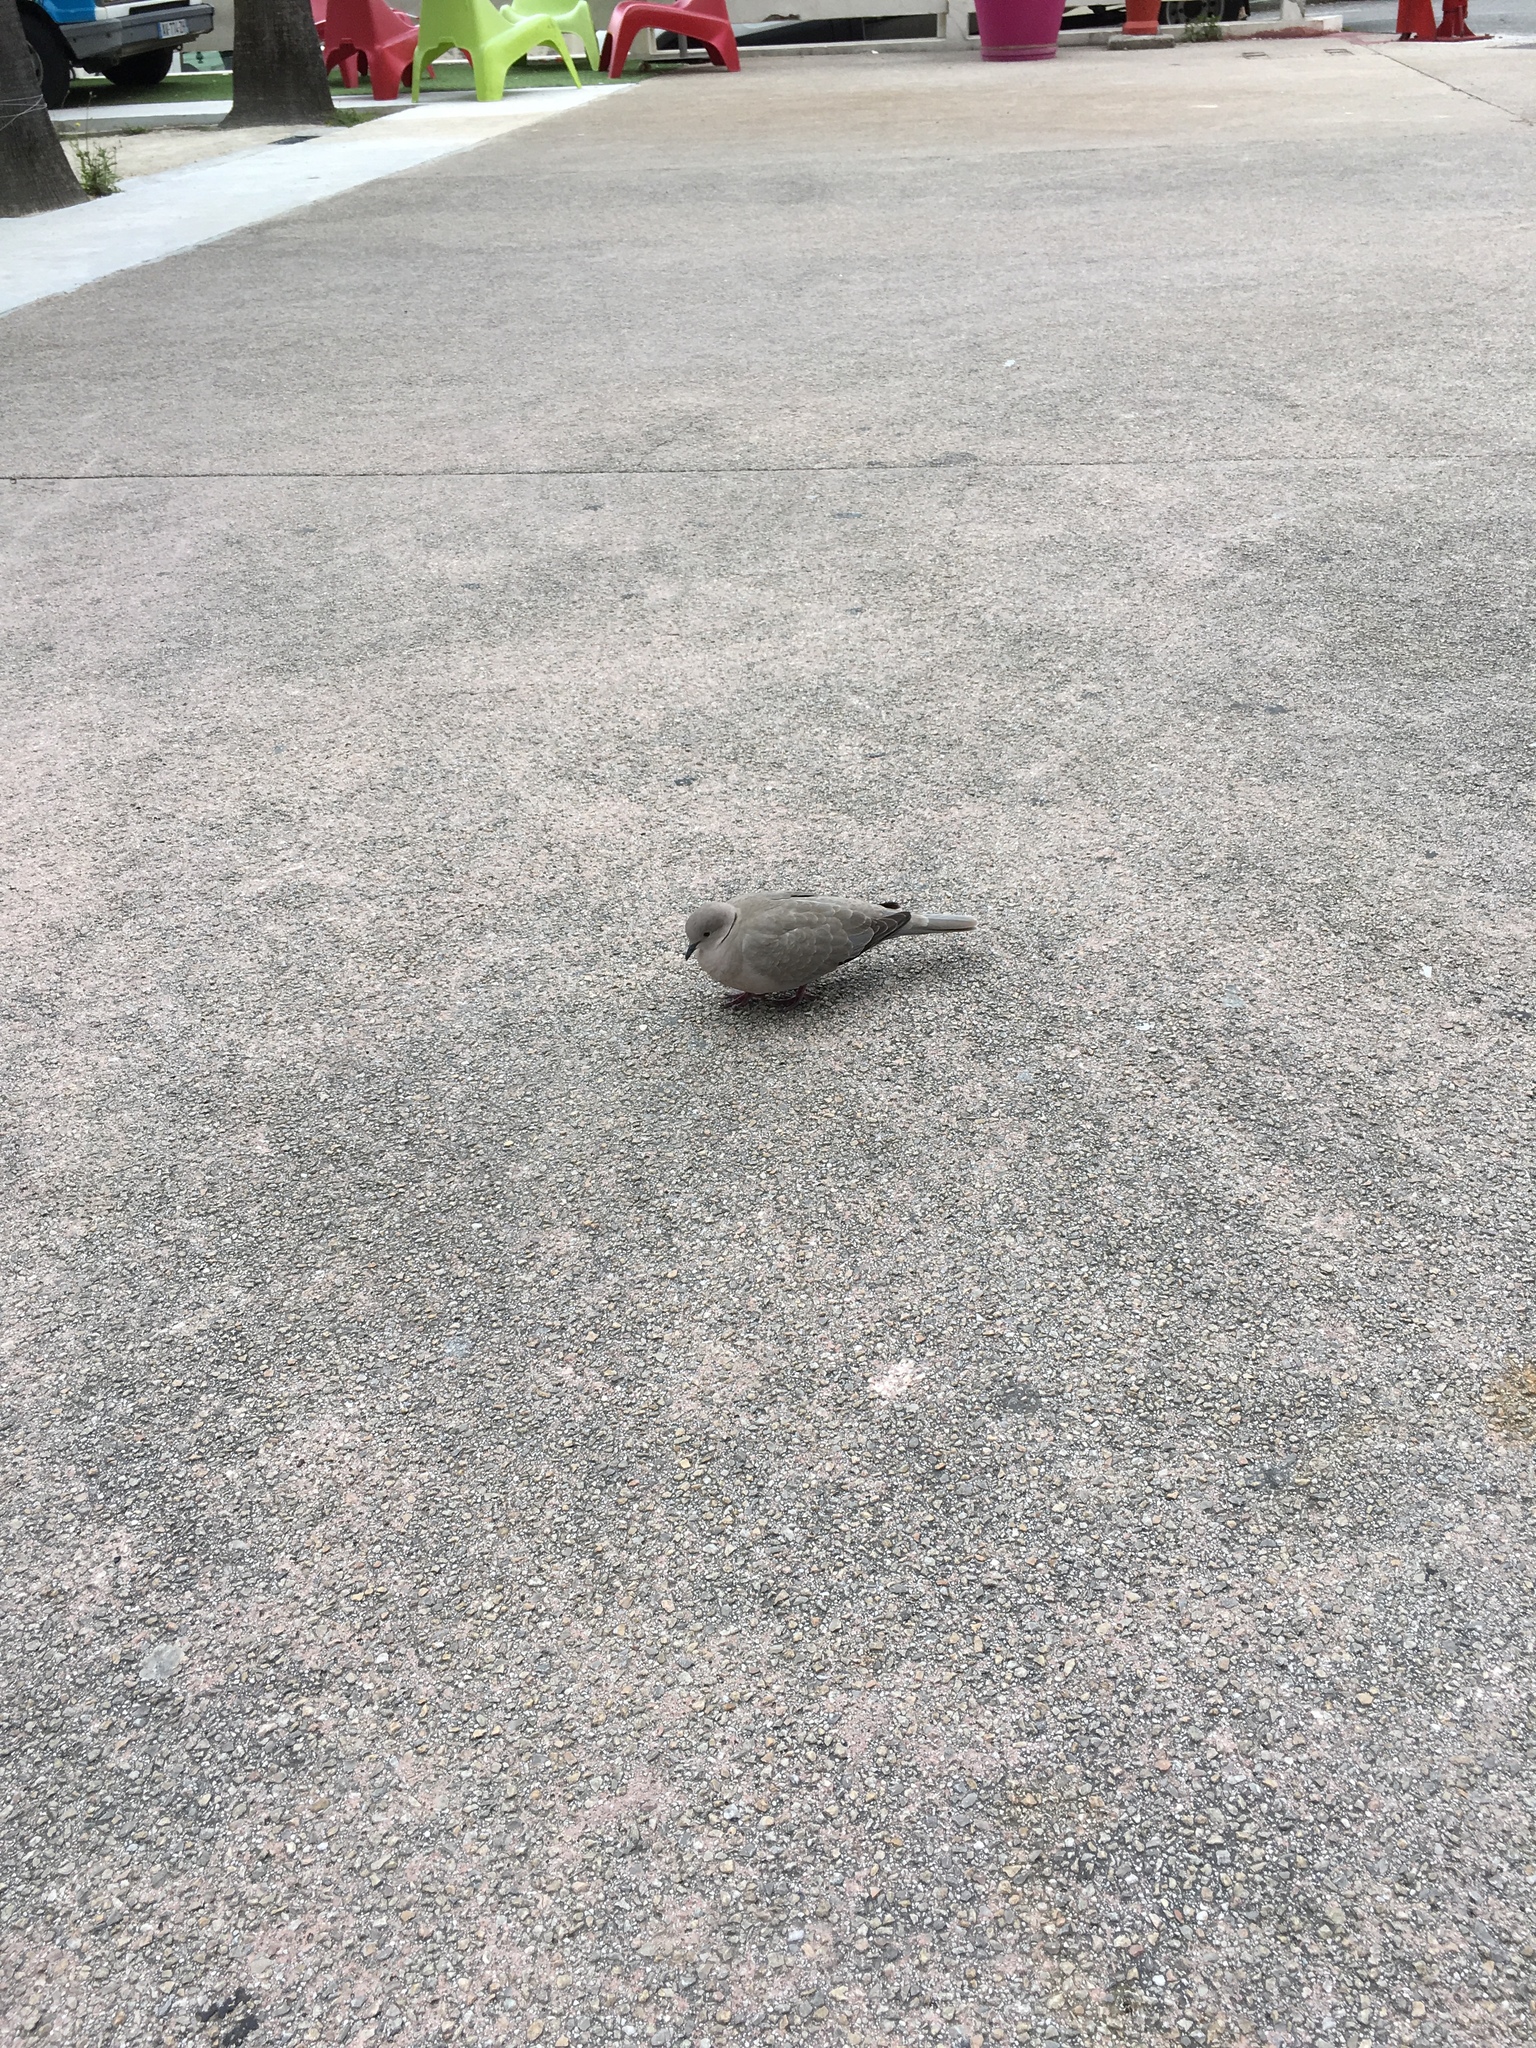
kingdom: Animalia
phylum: Chordata
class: Aves
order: Columbiformes
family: Columbidae
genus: Streptopelia
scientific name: Streptopelia decaocto
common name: Eurasian collared dove
